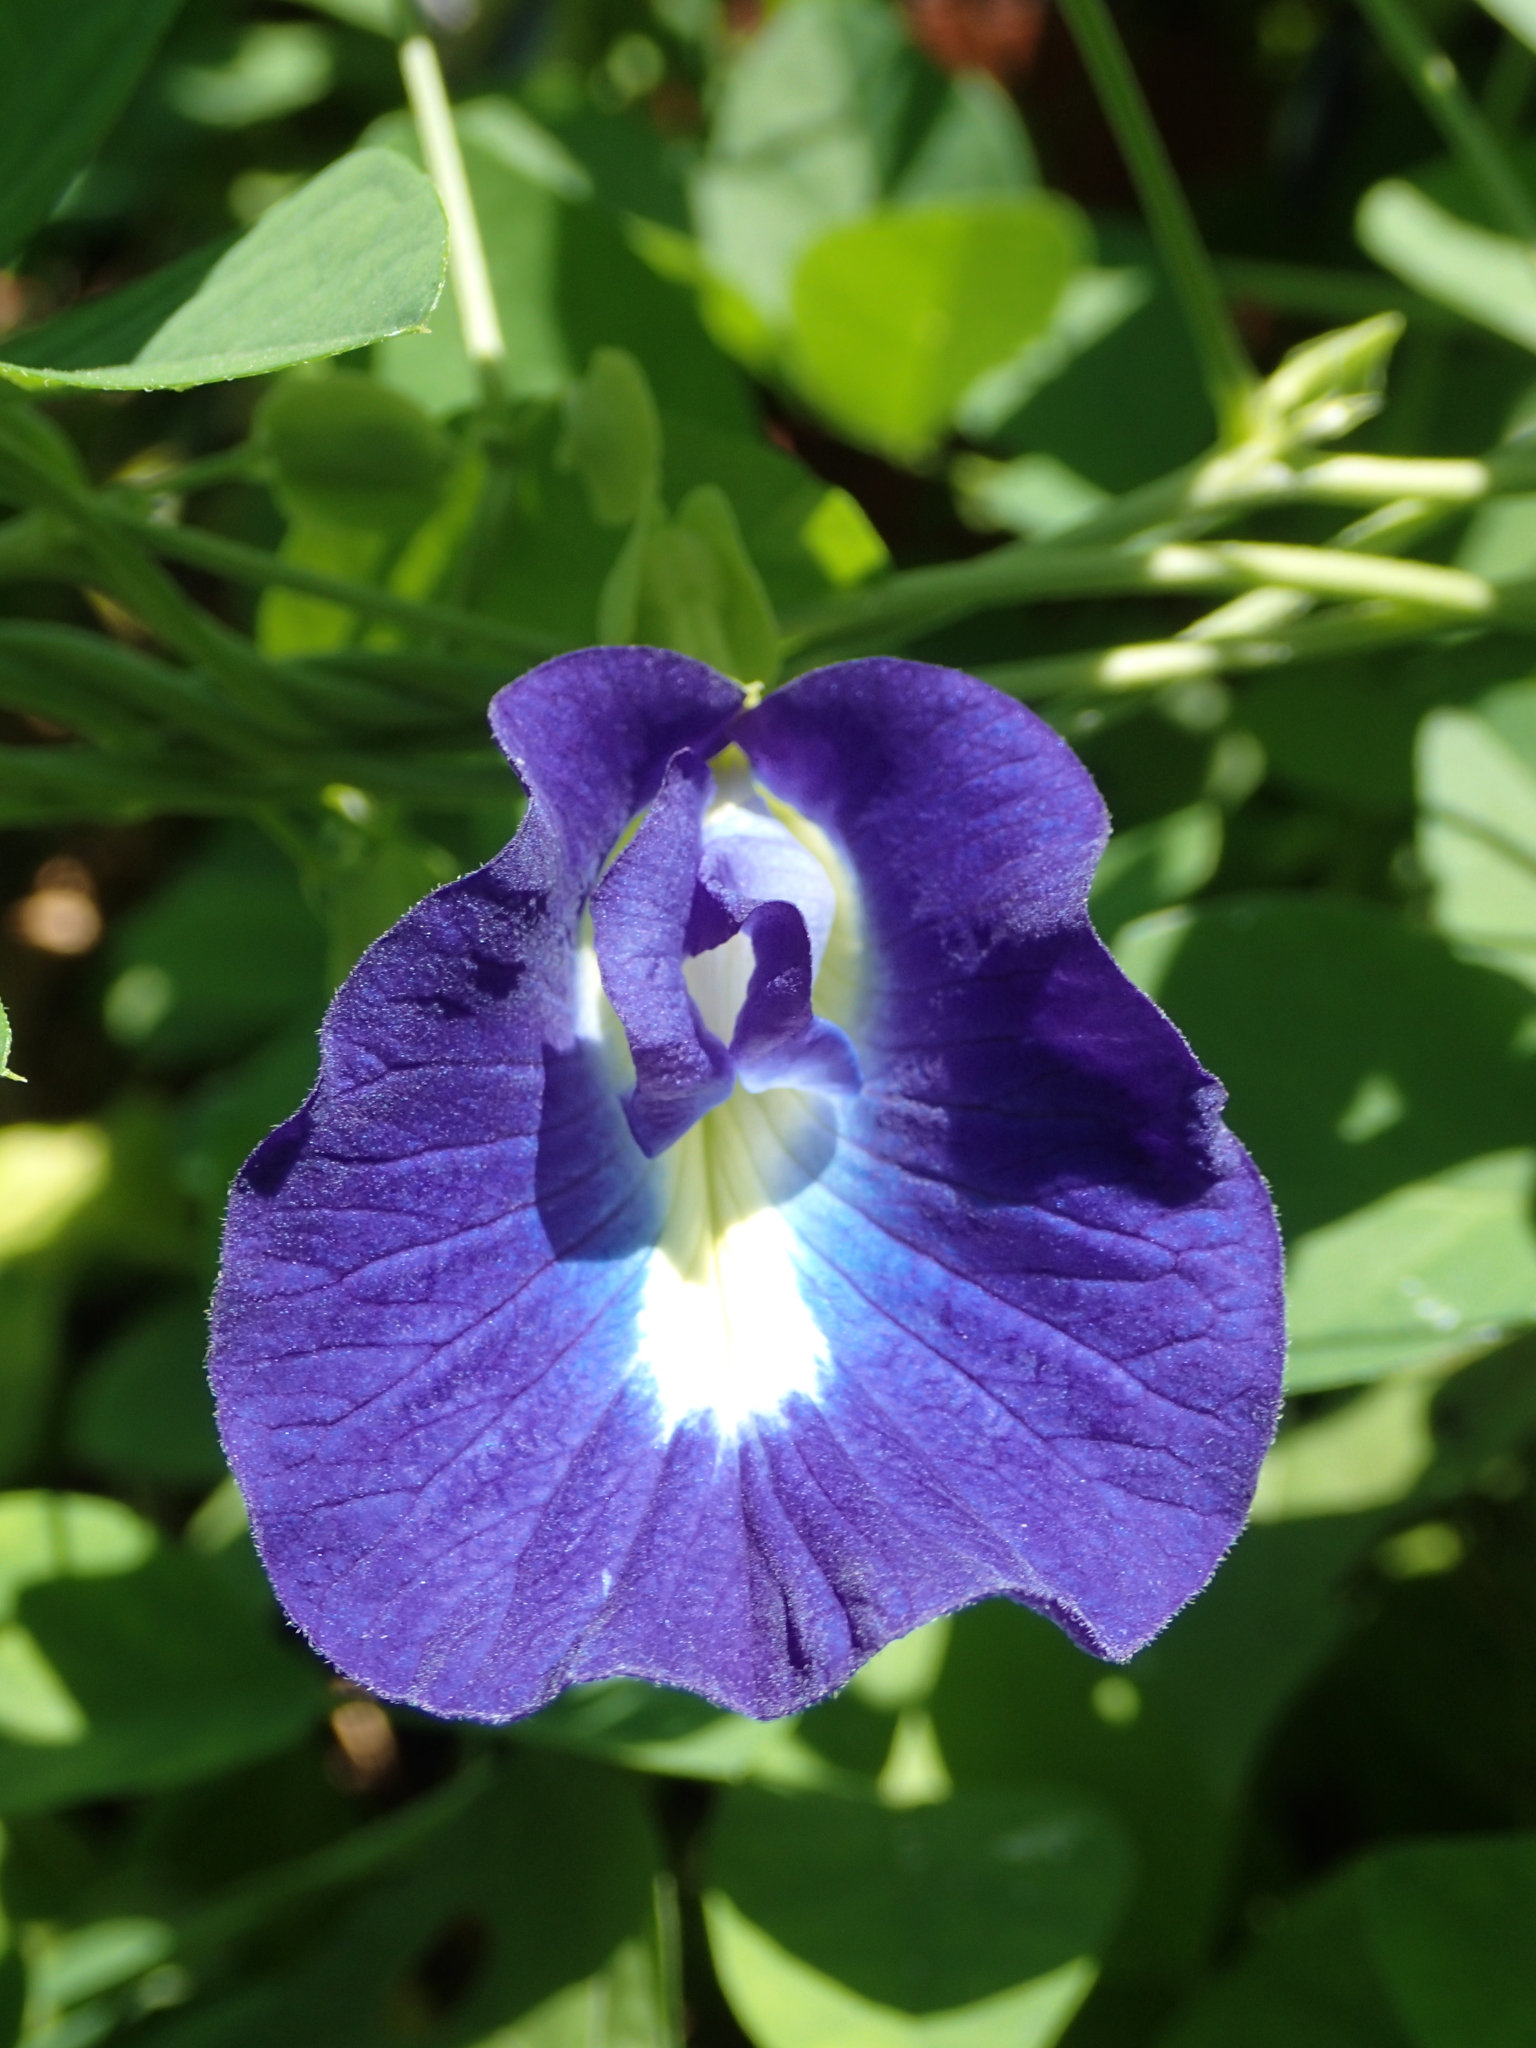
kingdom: Plantae
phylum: Tracheophyta
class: Magnoliopsida
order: Fabales
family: Fabaceae
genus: Clitoria
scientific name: Clitoria ternatea
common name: Asian pigeonwings
